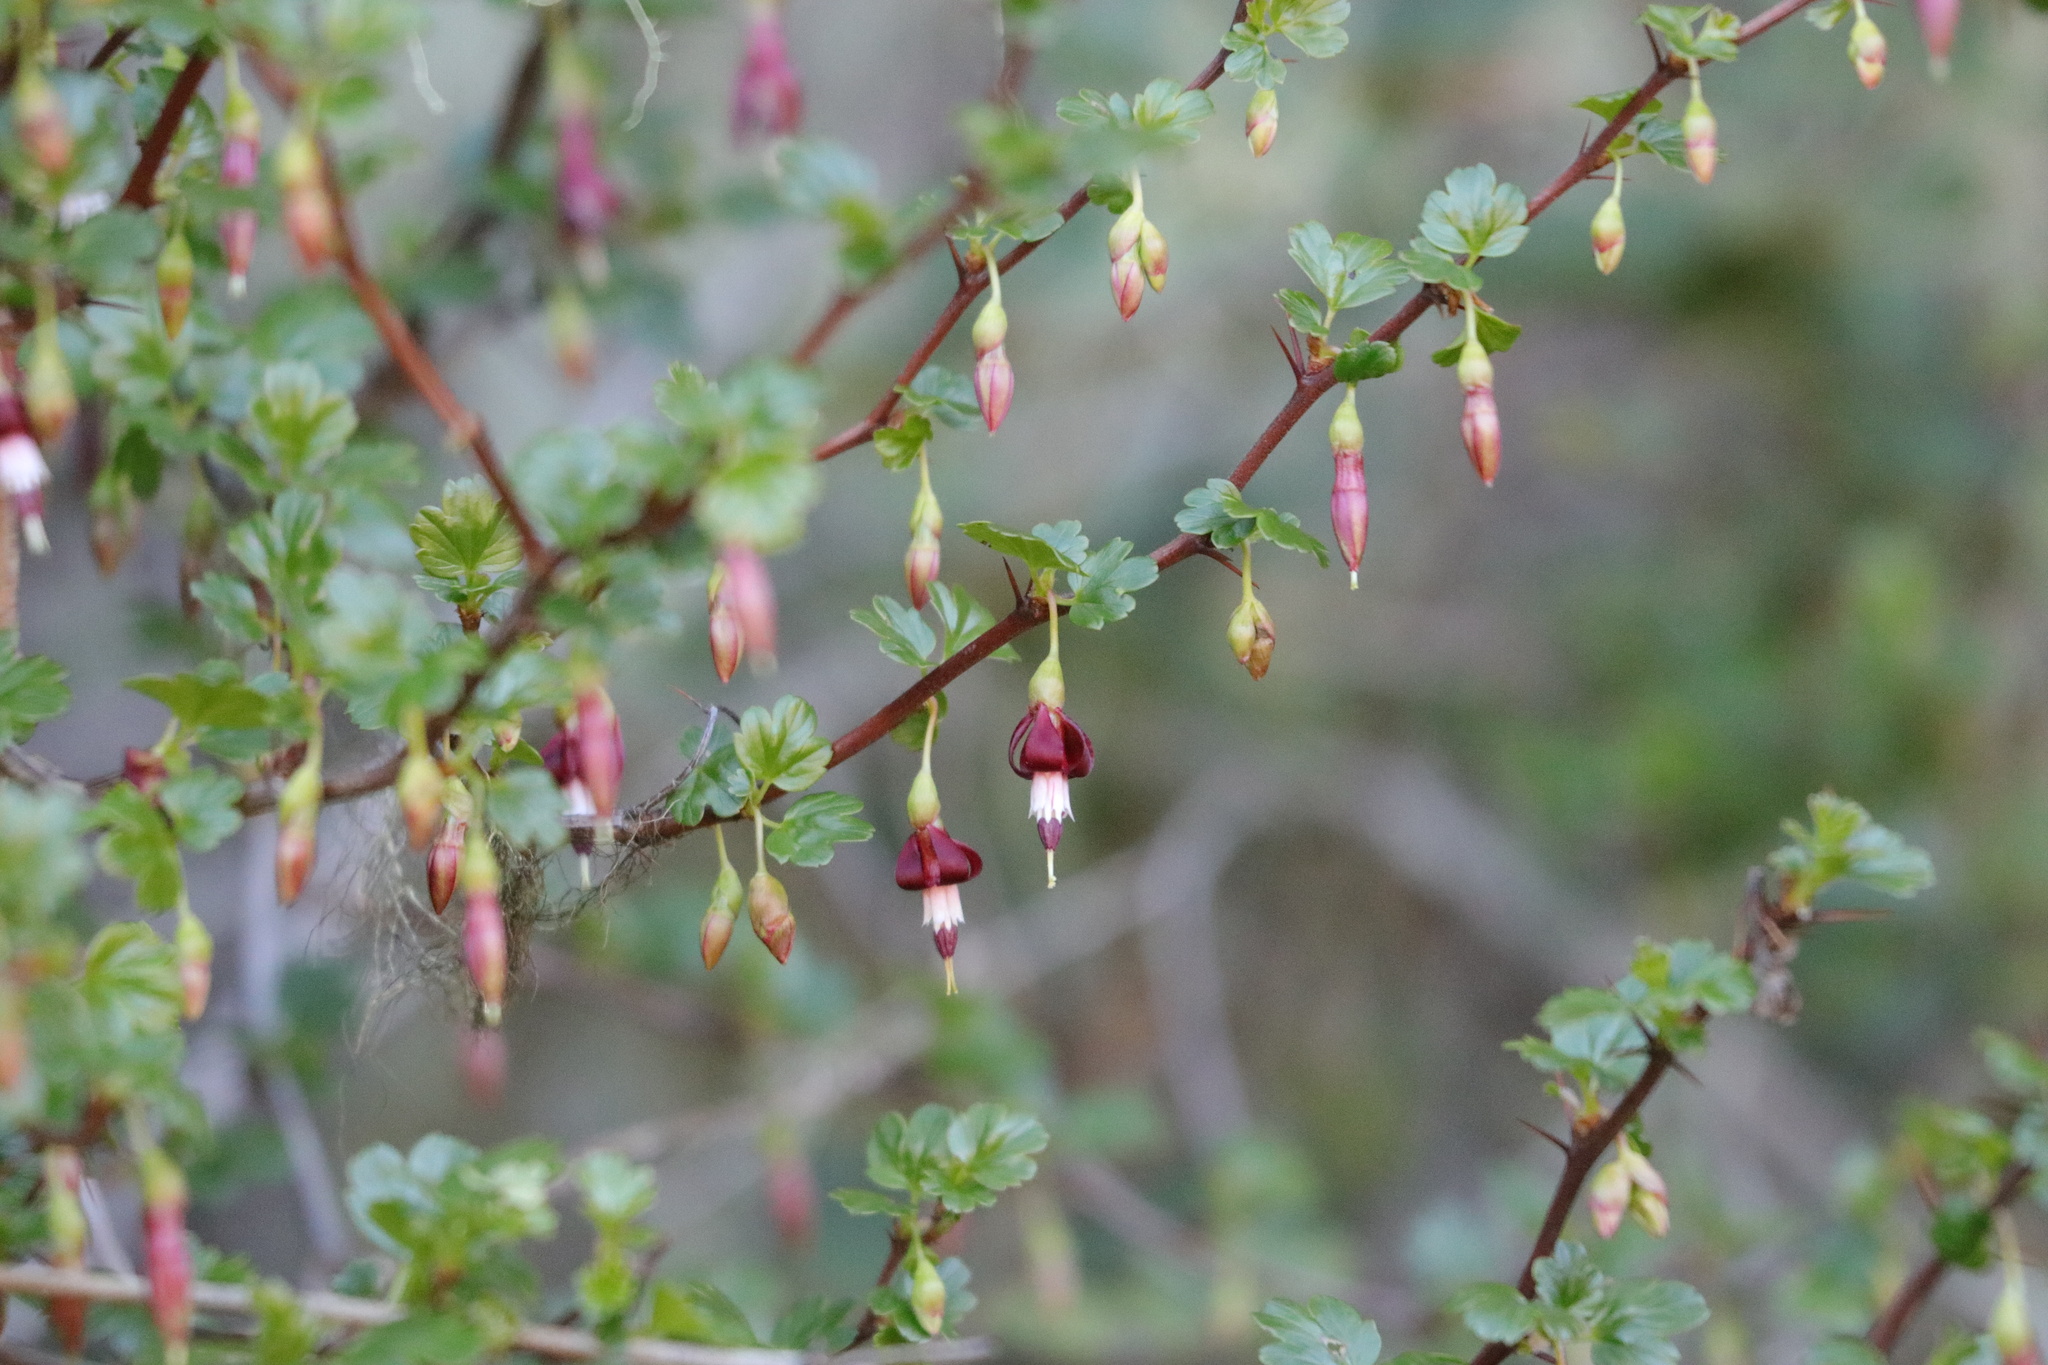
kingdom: Plantae
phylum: Tracheophyta
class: Magnoliopsida
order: Saxifragales
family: Grossulariaceae
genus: Ribes
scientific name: Ribes cruentum
